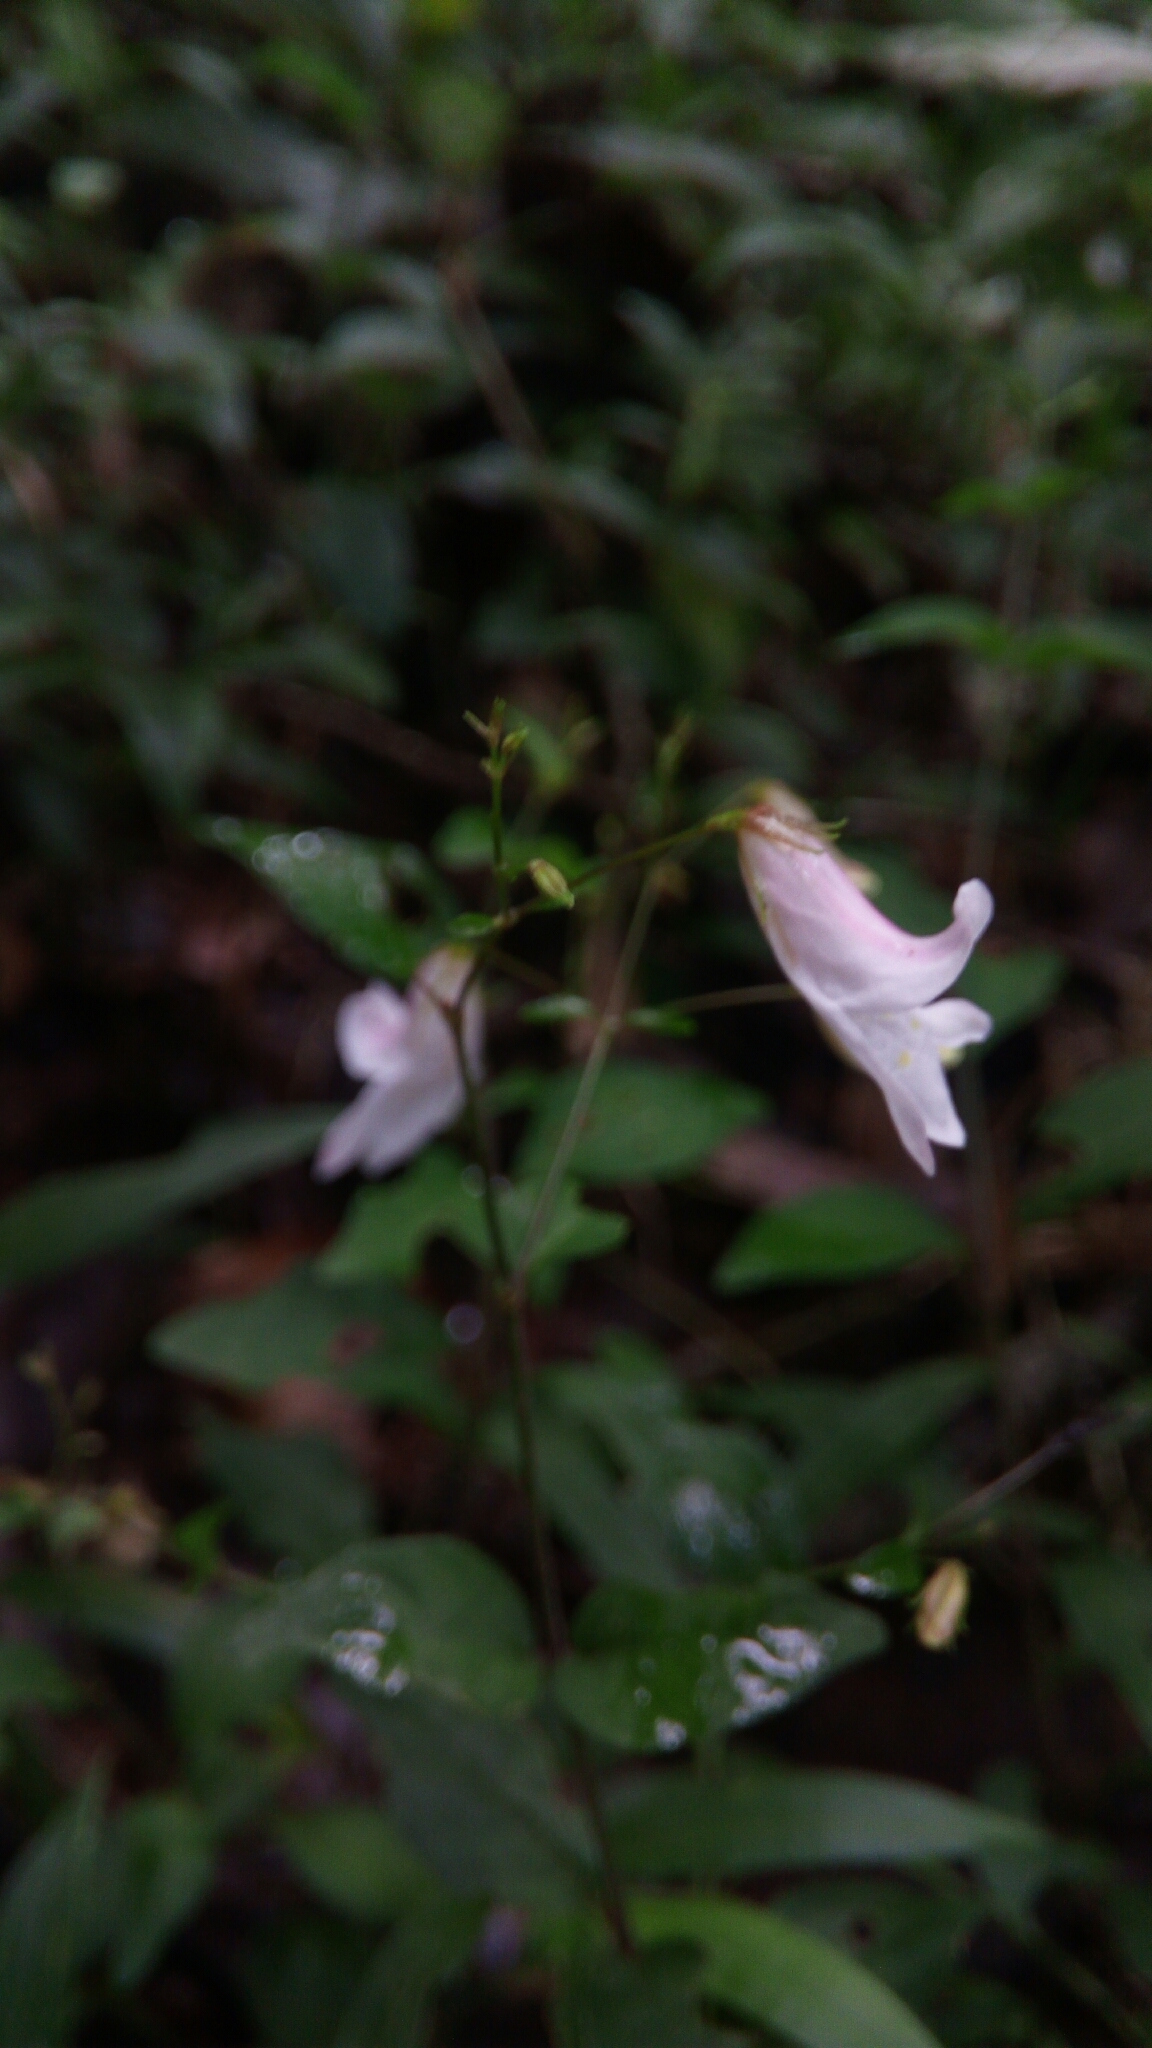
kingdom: Plantae
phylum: Tracheophyta
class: Magnoliopsida
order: Lamiales
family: Acanthaceae
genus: Isoglossa
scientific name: Isoglossa gracillima
